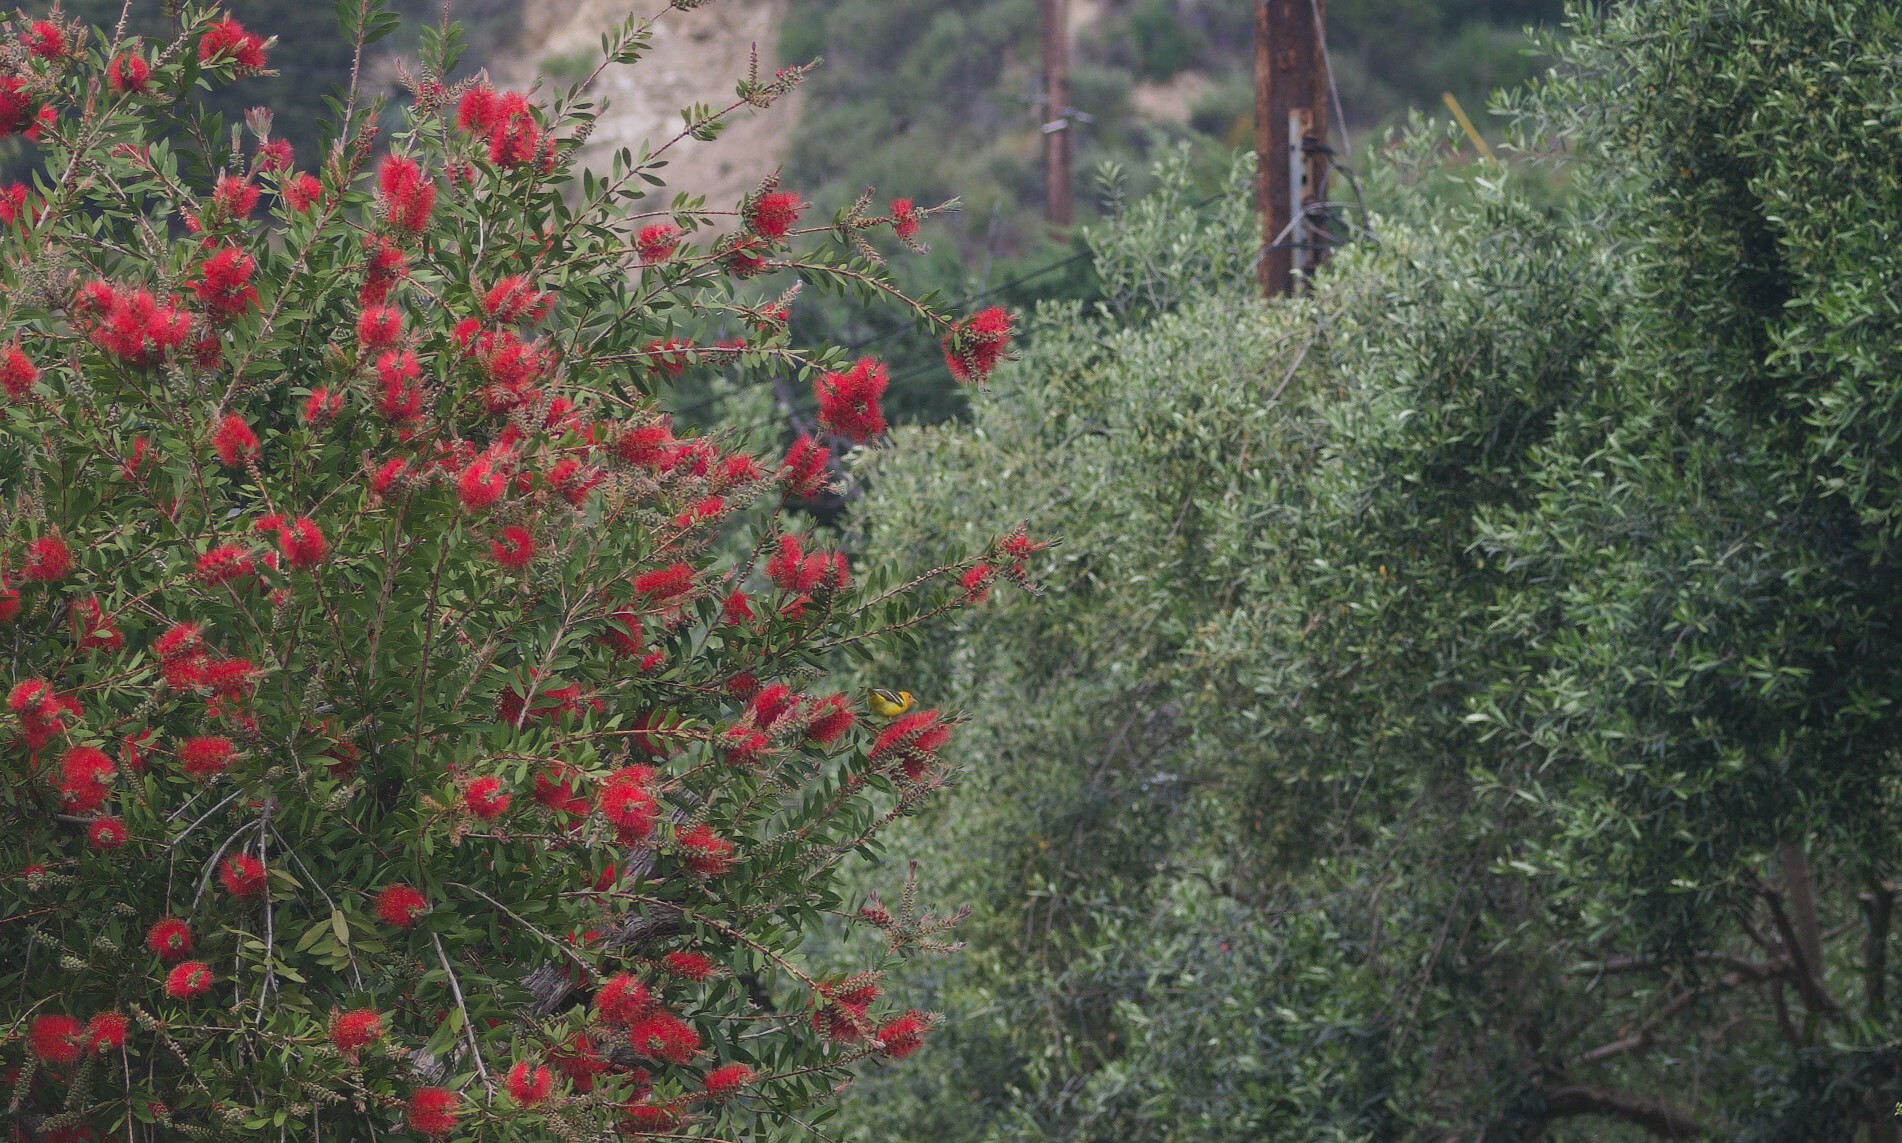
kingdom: Animalia
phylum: Chordata
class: Aves
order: Passeriformes
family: Cardinalidae
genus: Piranga
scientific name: Piranga ludoviciana
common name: Western tanager
